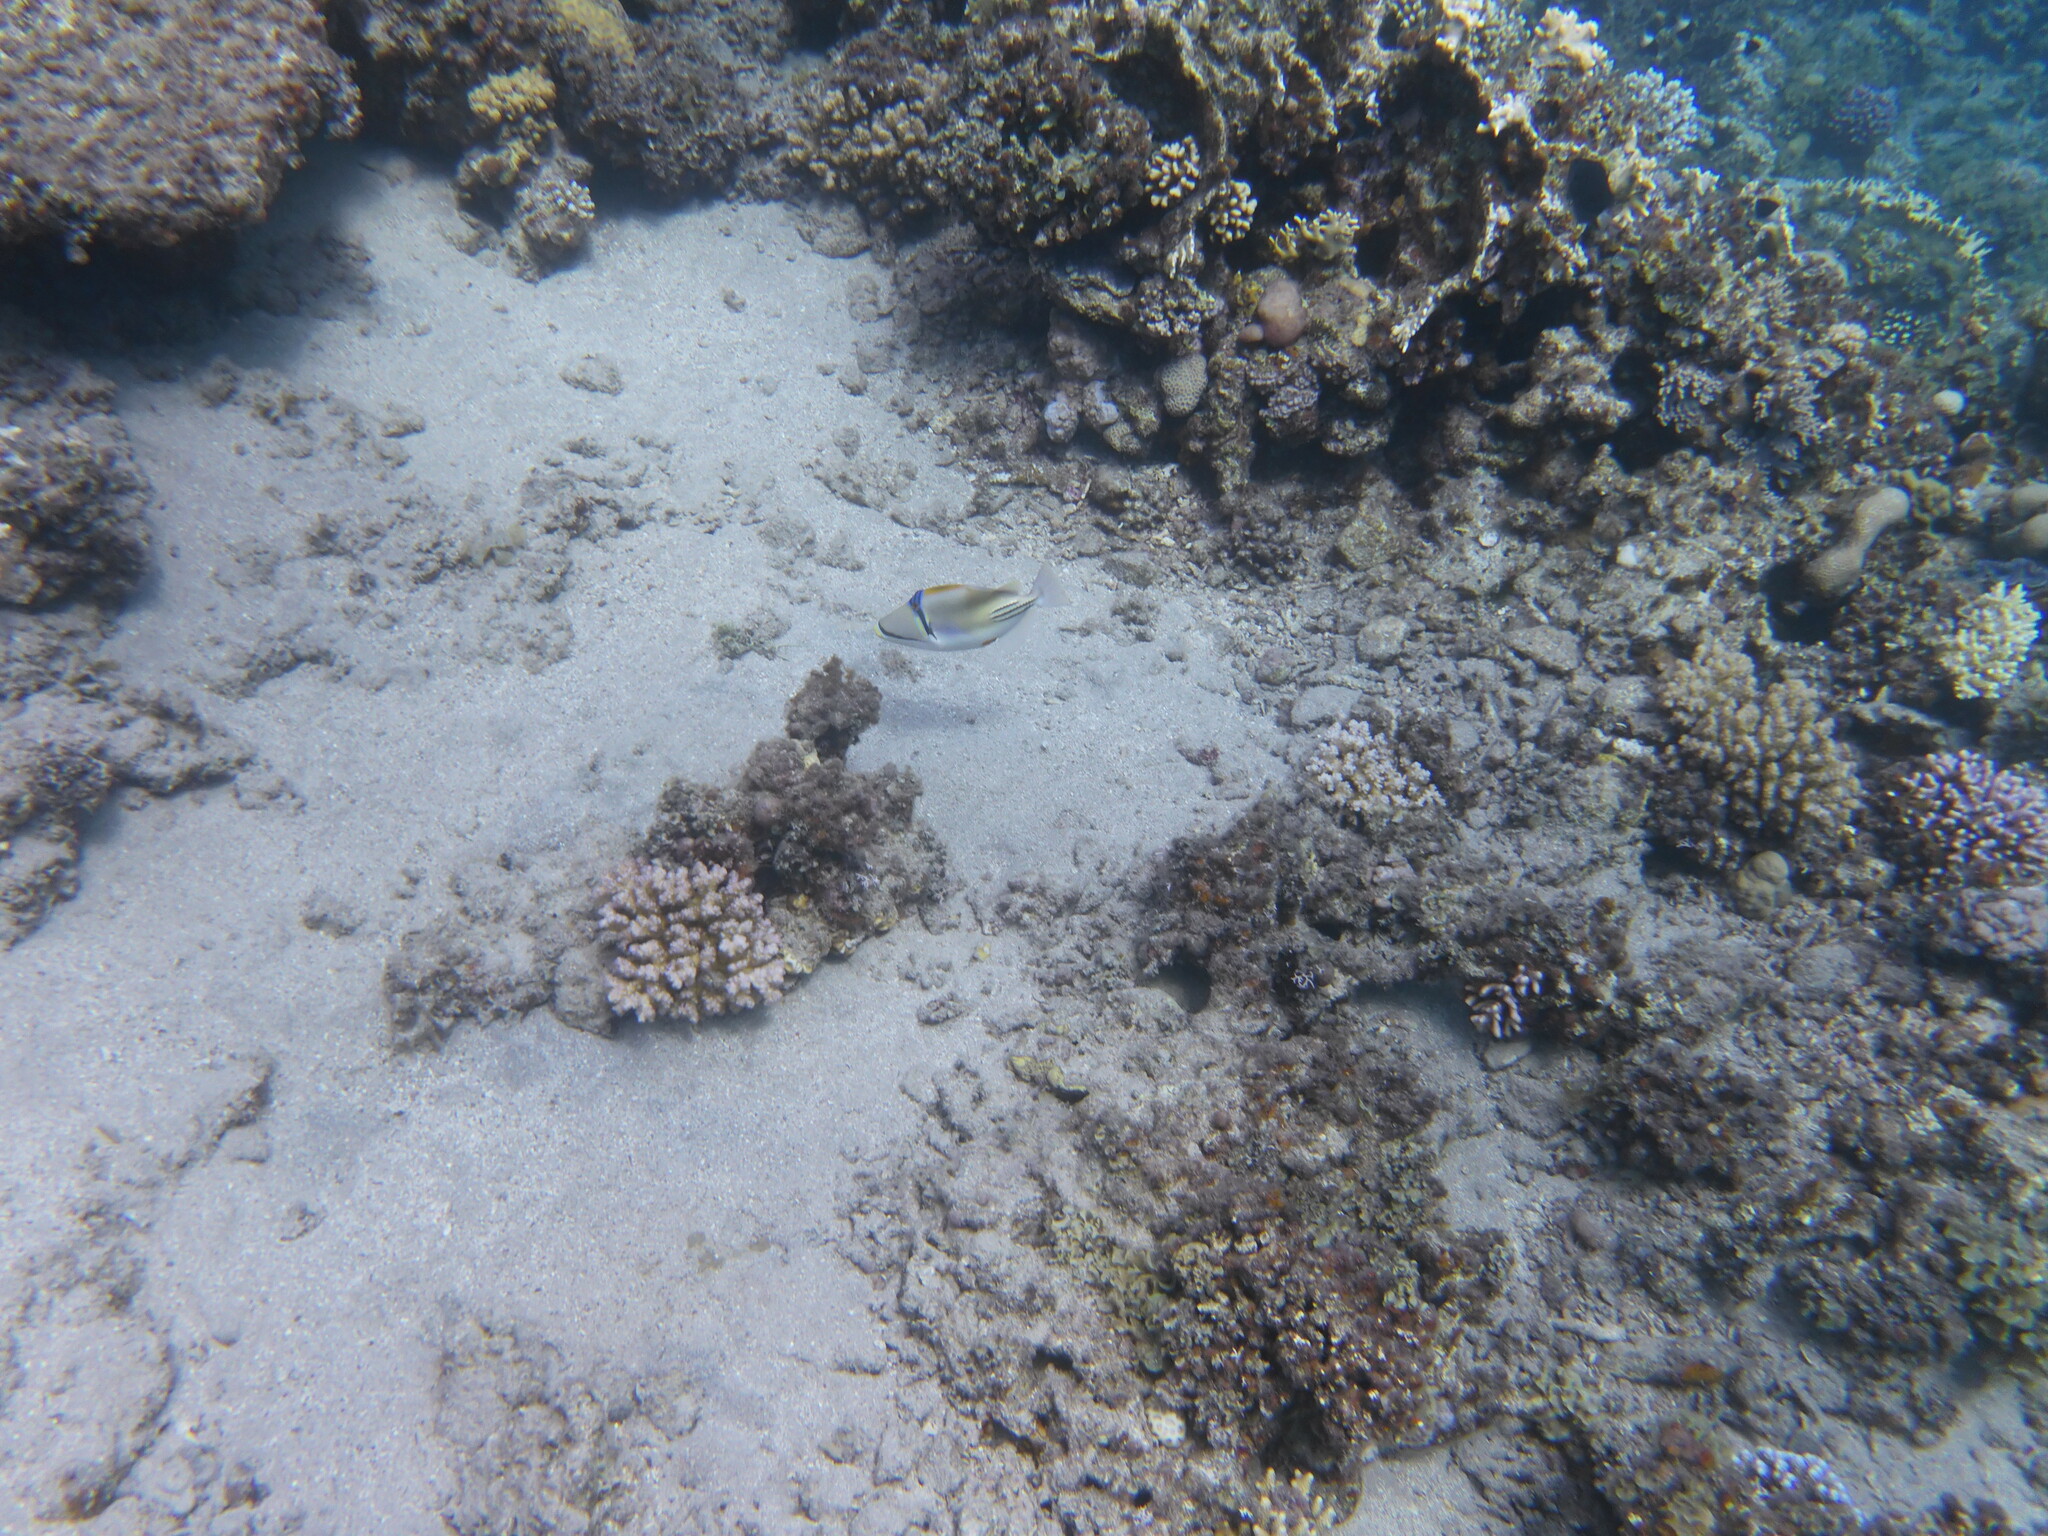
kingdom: Animalia
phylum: Chordata
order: Tetraodontiformes
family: Balistidae
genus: Rhinecanthus
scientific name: Rhinecanthus assasi
